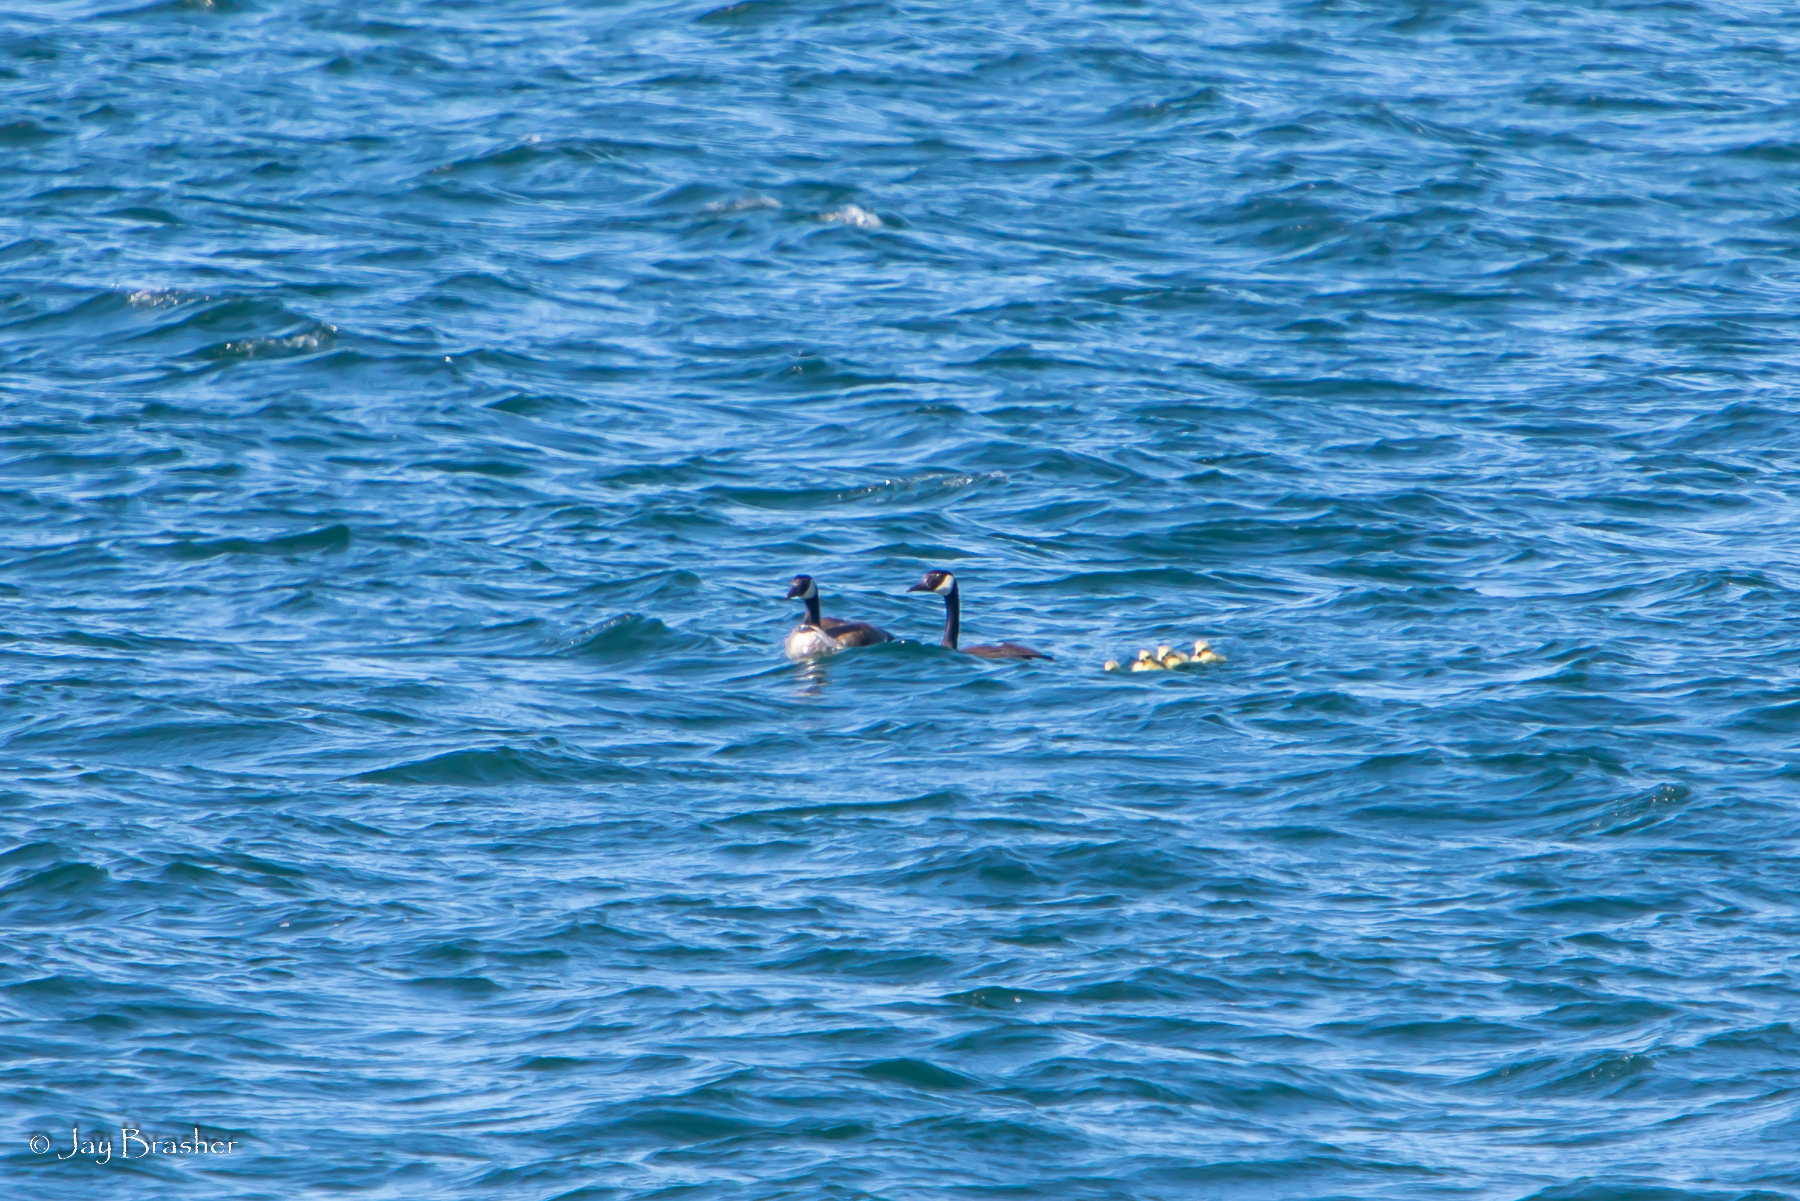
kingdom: Animalia
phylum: Chordata
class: Aves
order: Anseriformes
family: Anatidae
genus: Branta
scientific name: Branta canadensis
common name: Canada goose
